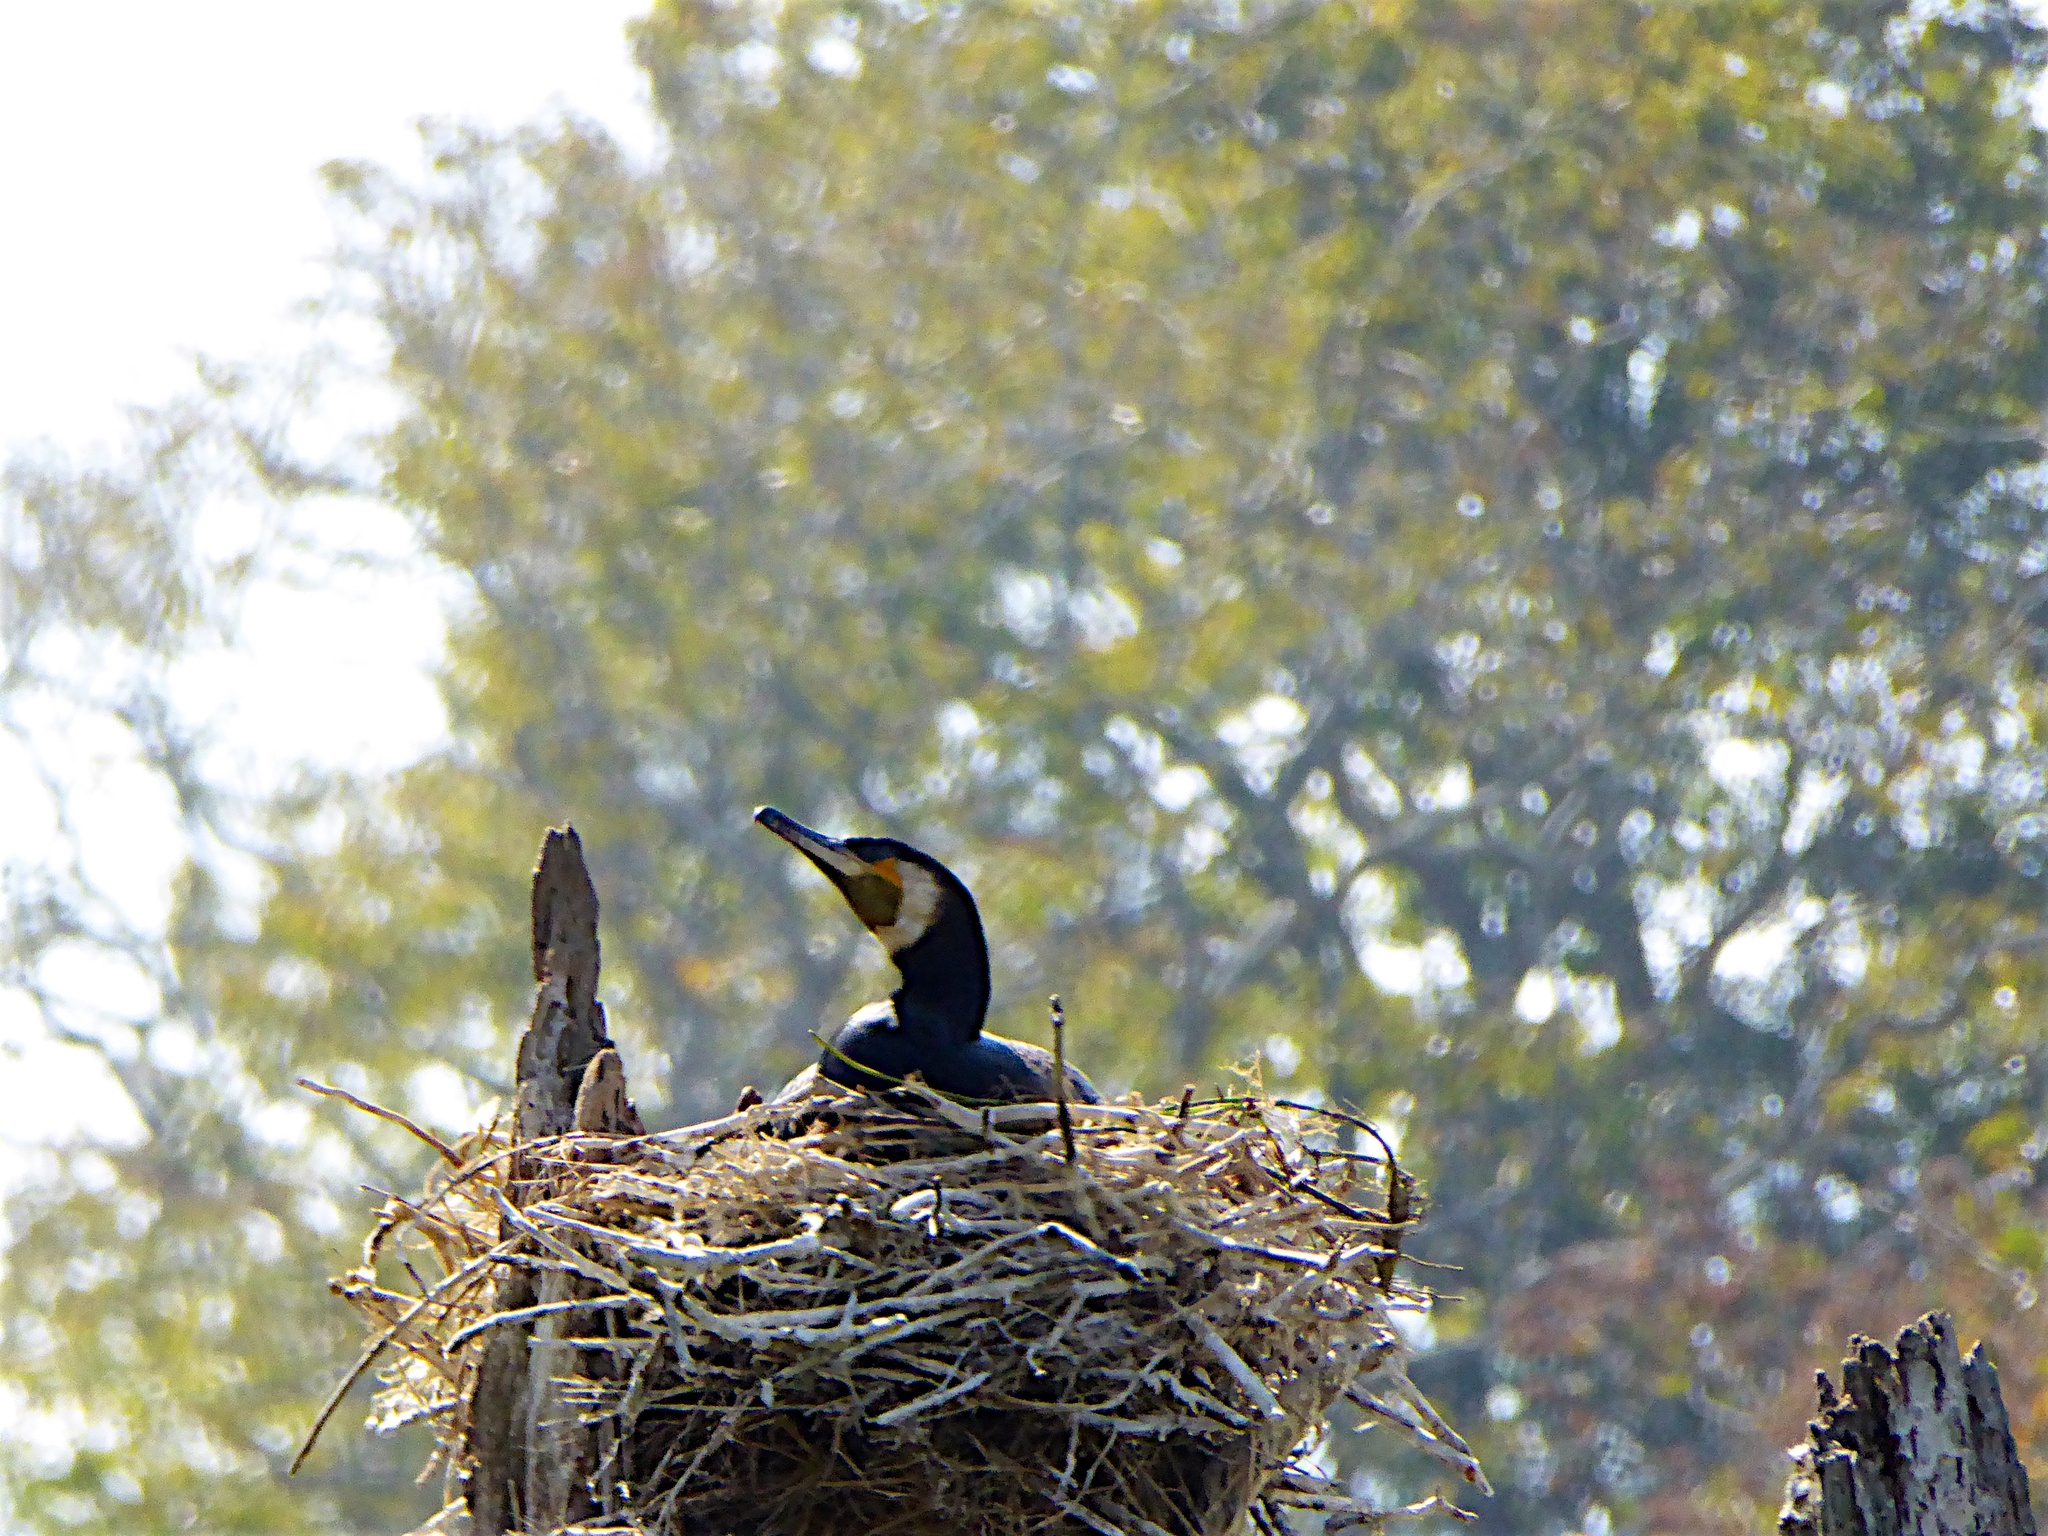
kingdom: Animalia
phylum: Chordata
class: Aves
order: Suliformes
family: Phalacrocoracidae
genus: Phalacrocorax
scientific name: Phalacrocorax carbo
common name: Great cormorant
